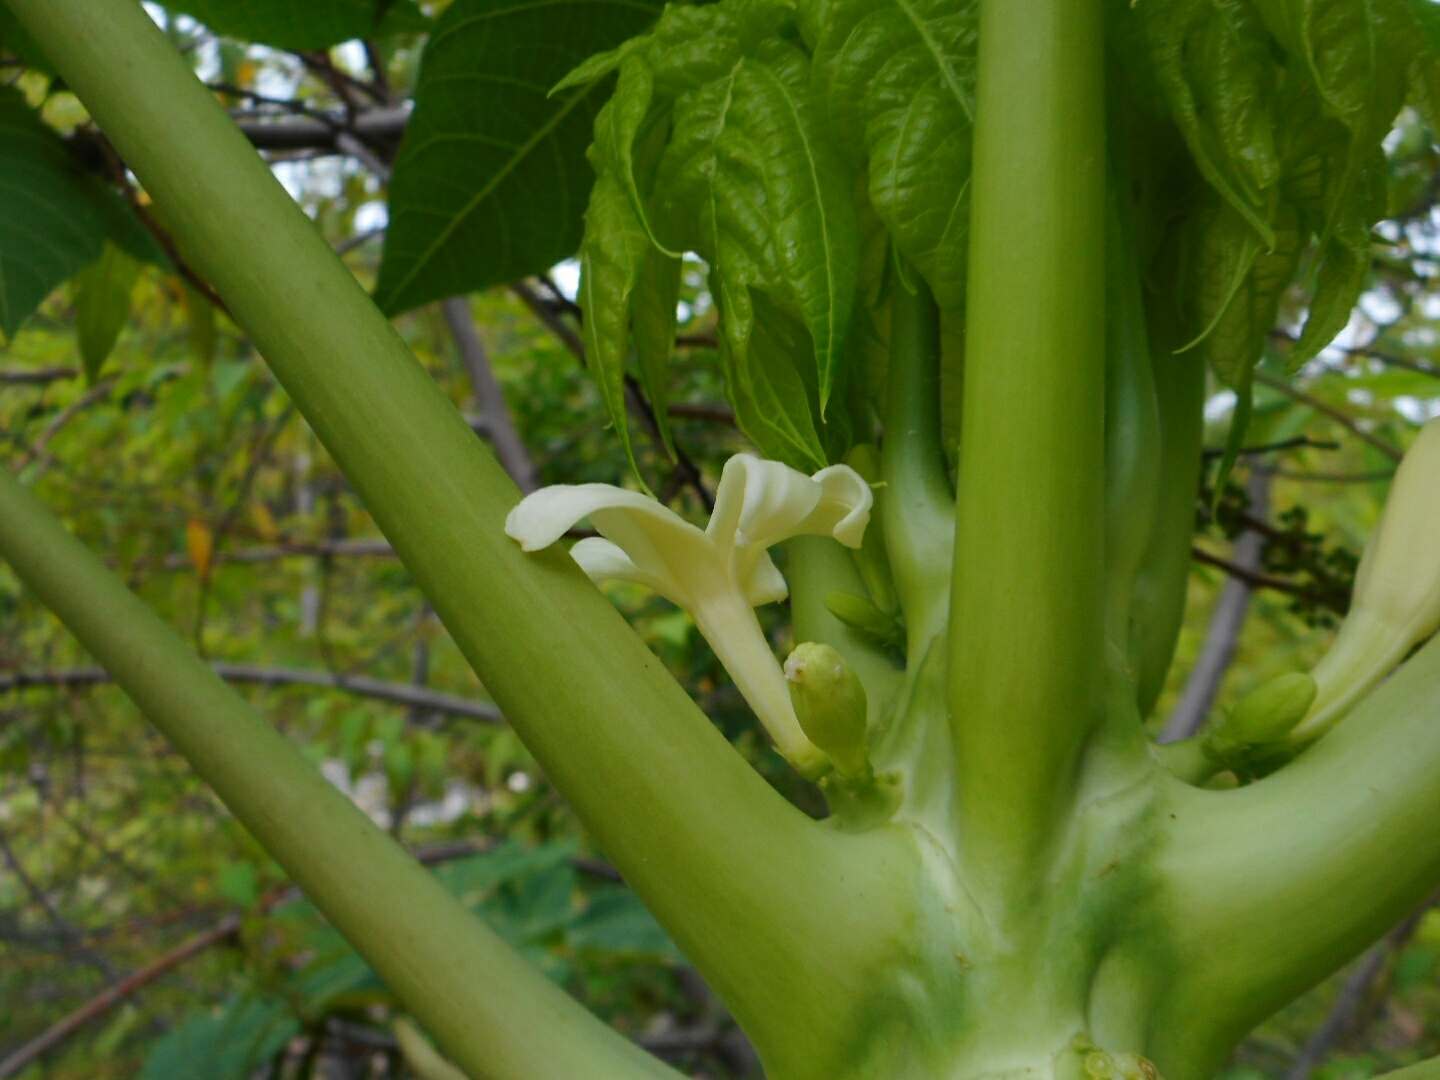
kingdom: Plantae
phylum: Tracheophyta
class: Magnoliopsida
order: Brassicales
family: Caricaceae
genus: Carica
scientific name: Carica papaya
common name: Papaya
